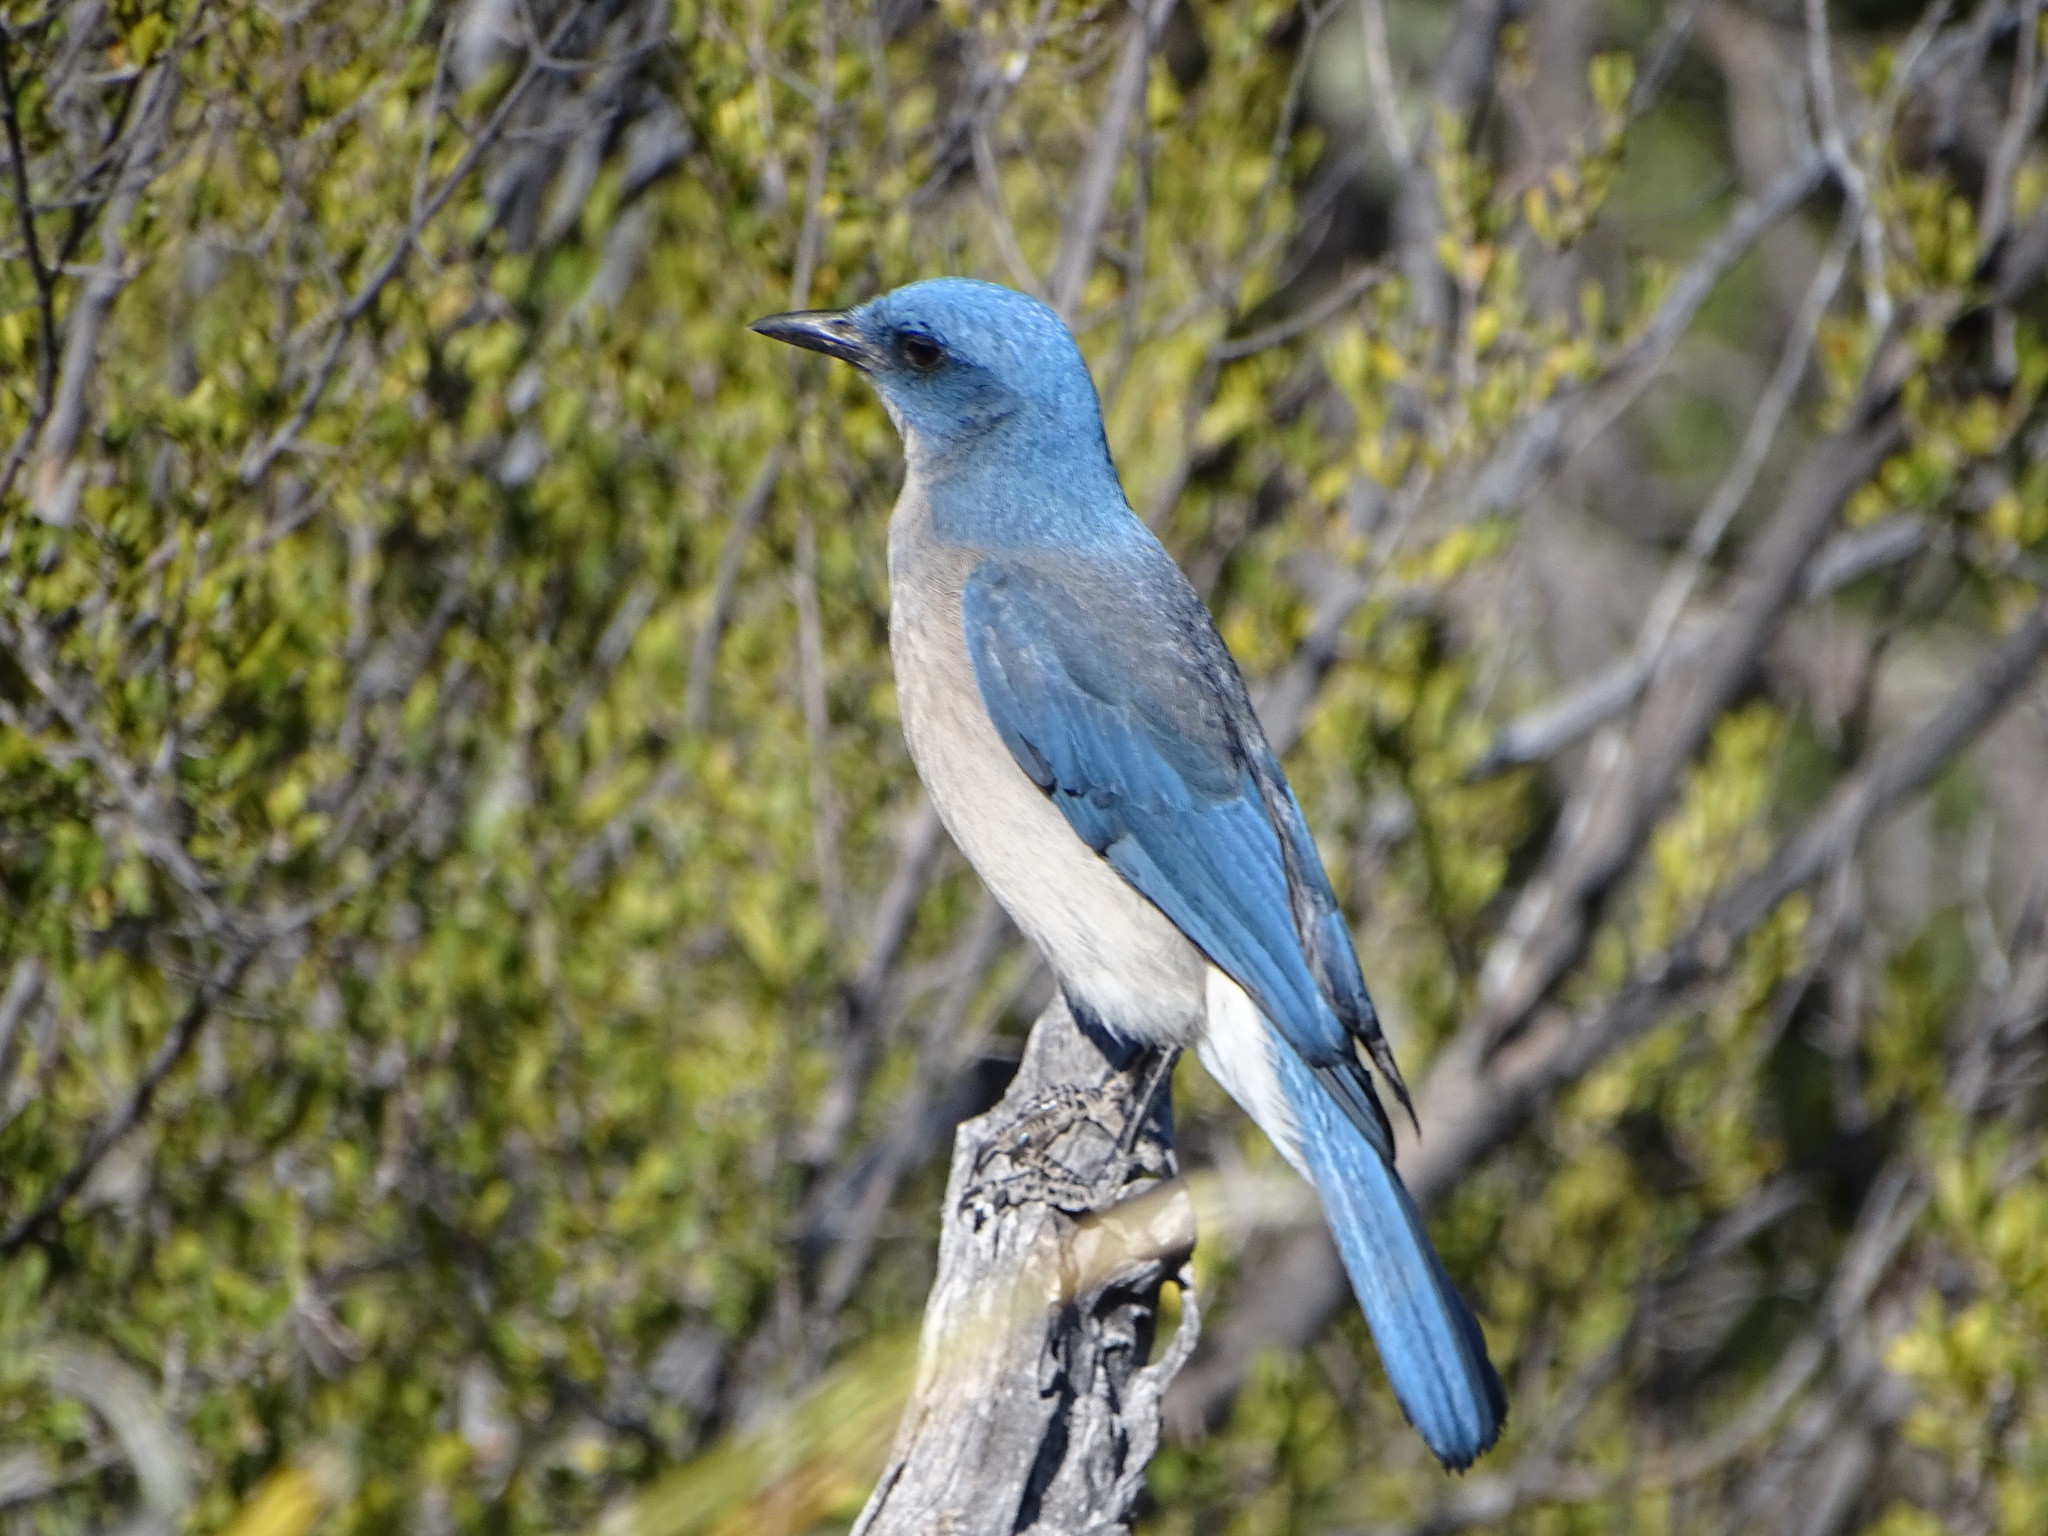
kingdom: Animalia
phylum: Chordata
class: Aves
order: Passeriformes
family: Corvidae
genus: Aphelocoma
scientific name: Aphelocoma wollweberi
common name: Mexican jay
